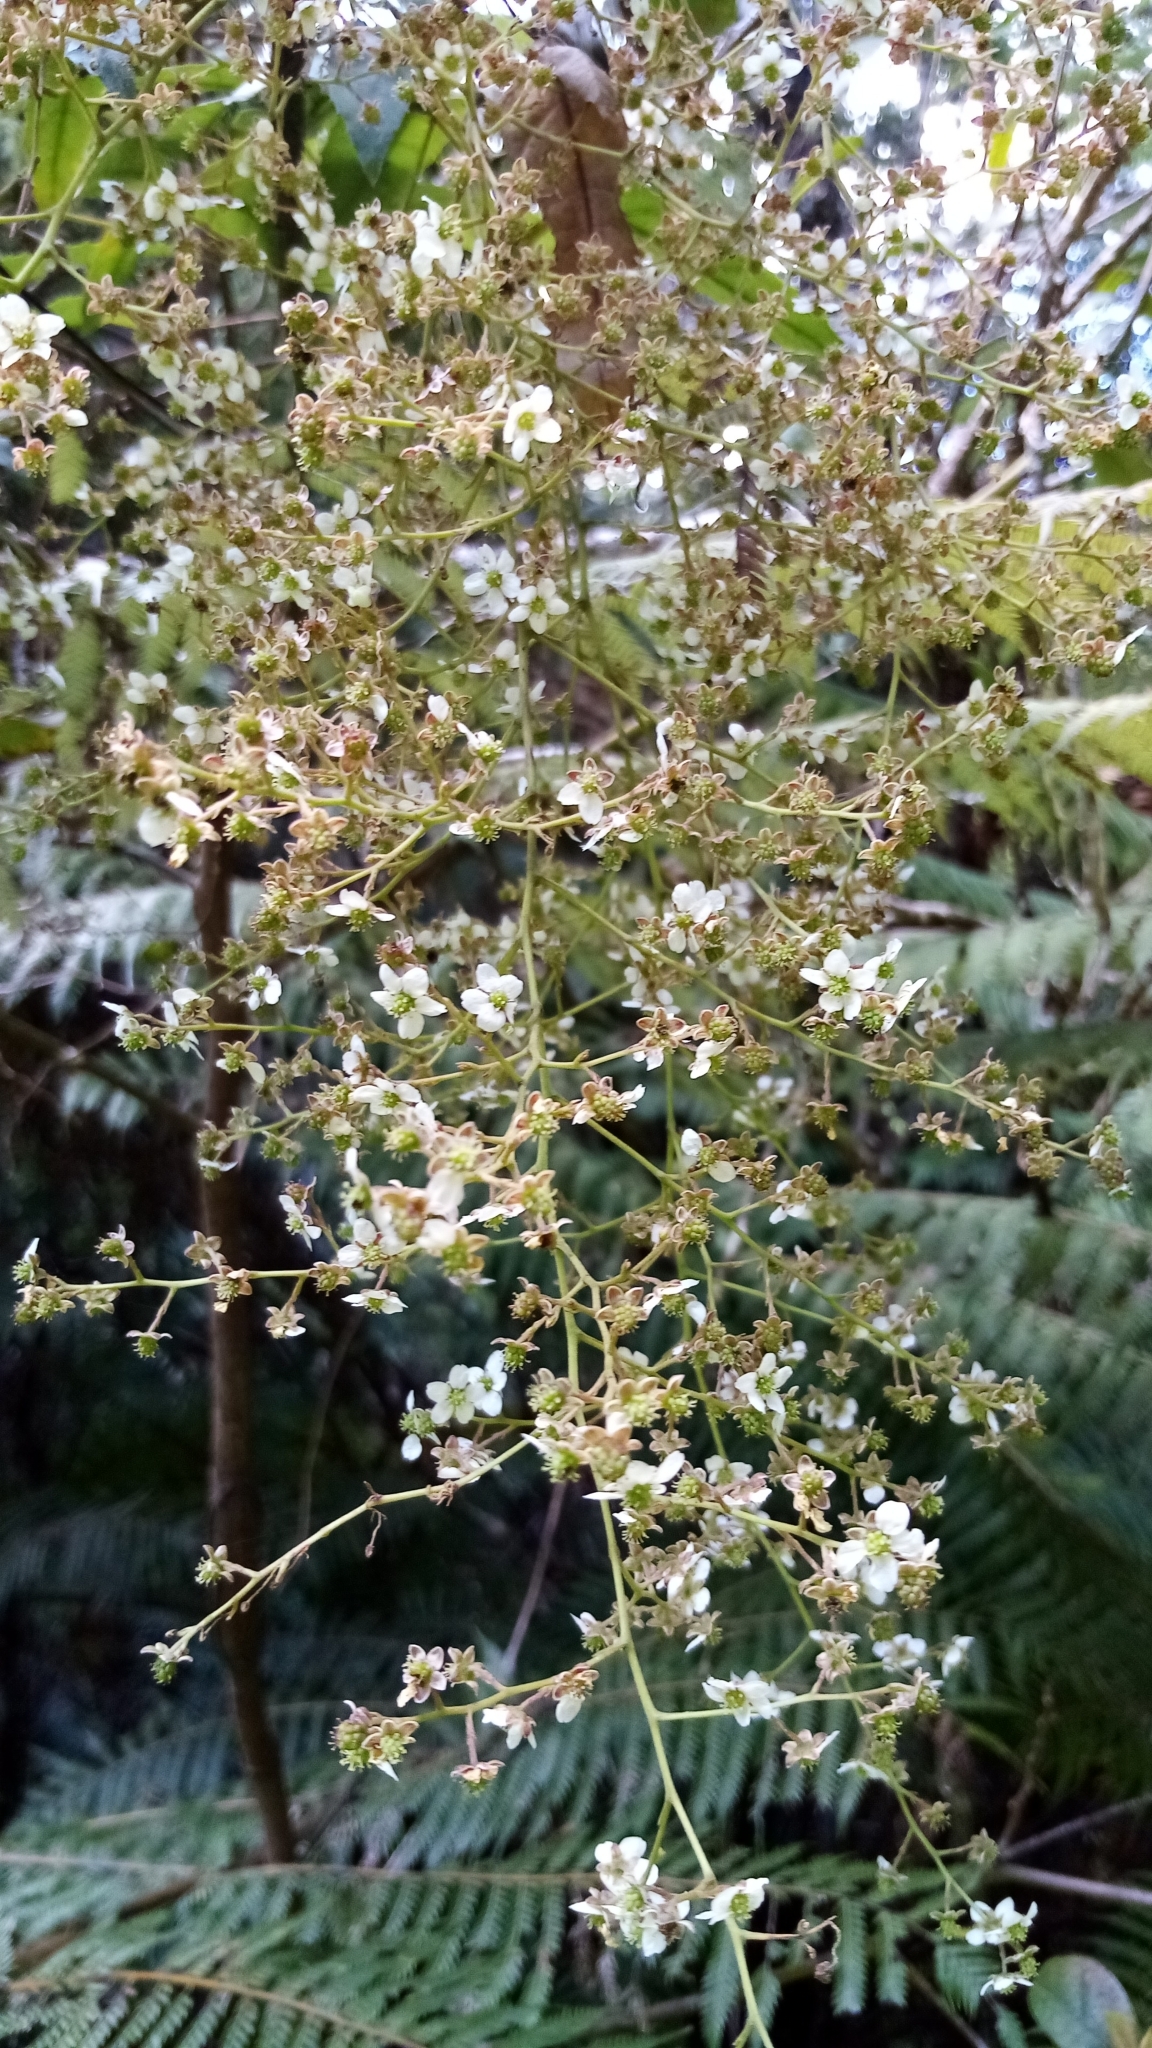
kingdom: Plantae
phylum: Tracheophyta
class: Magnoliopsida
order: Rosales
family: Rosaceae
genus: Rubus
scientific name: Rubus cissoides
